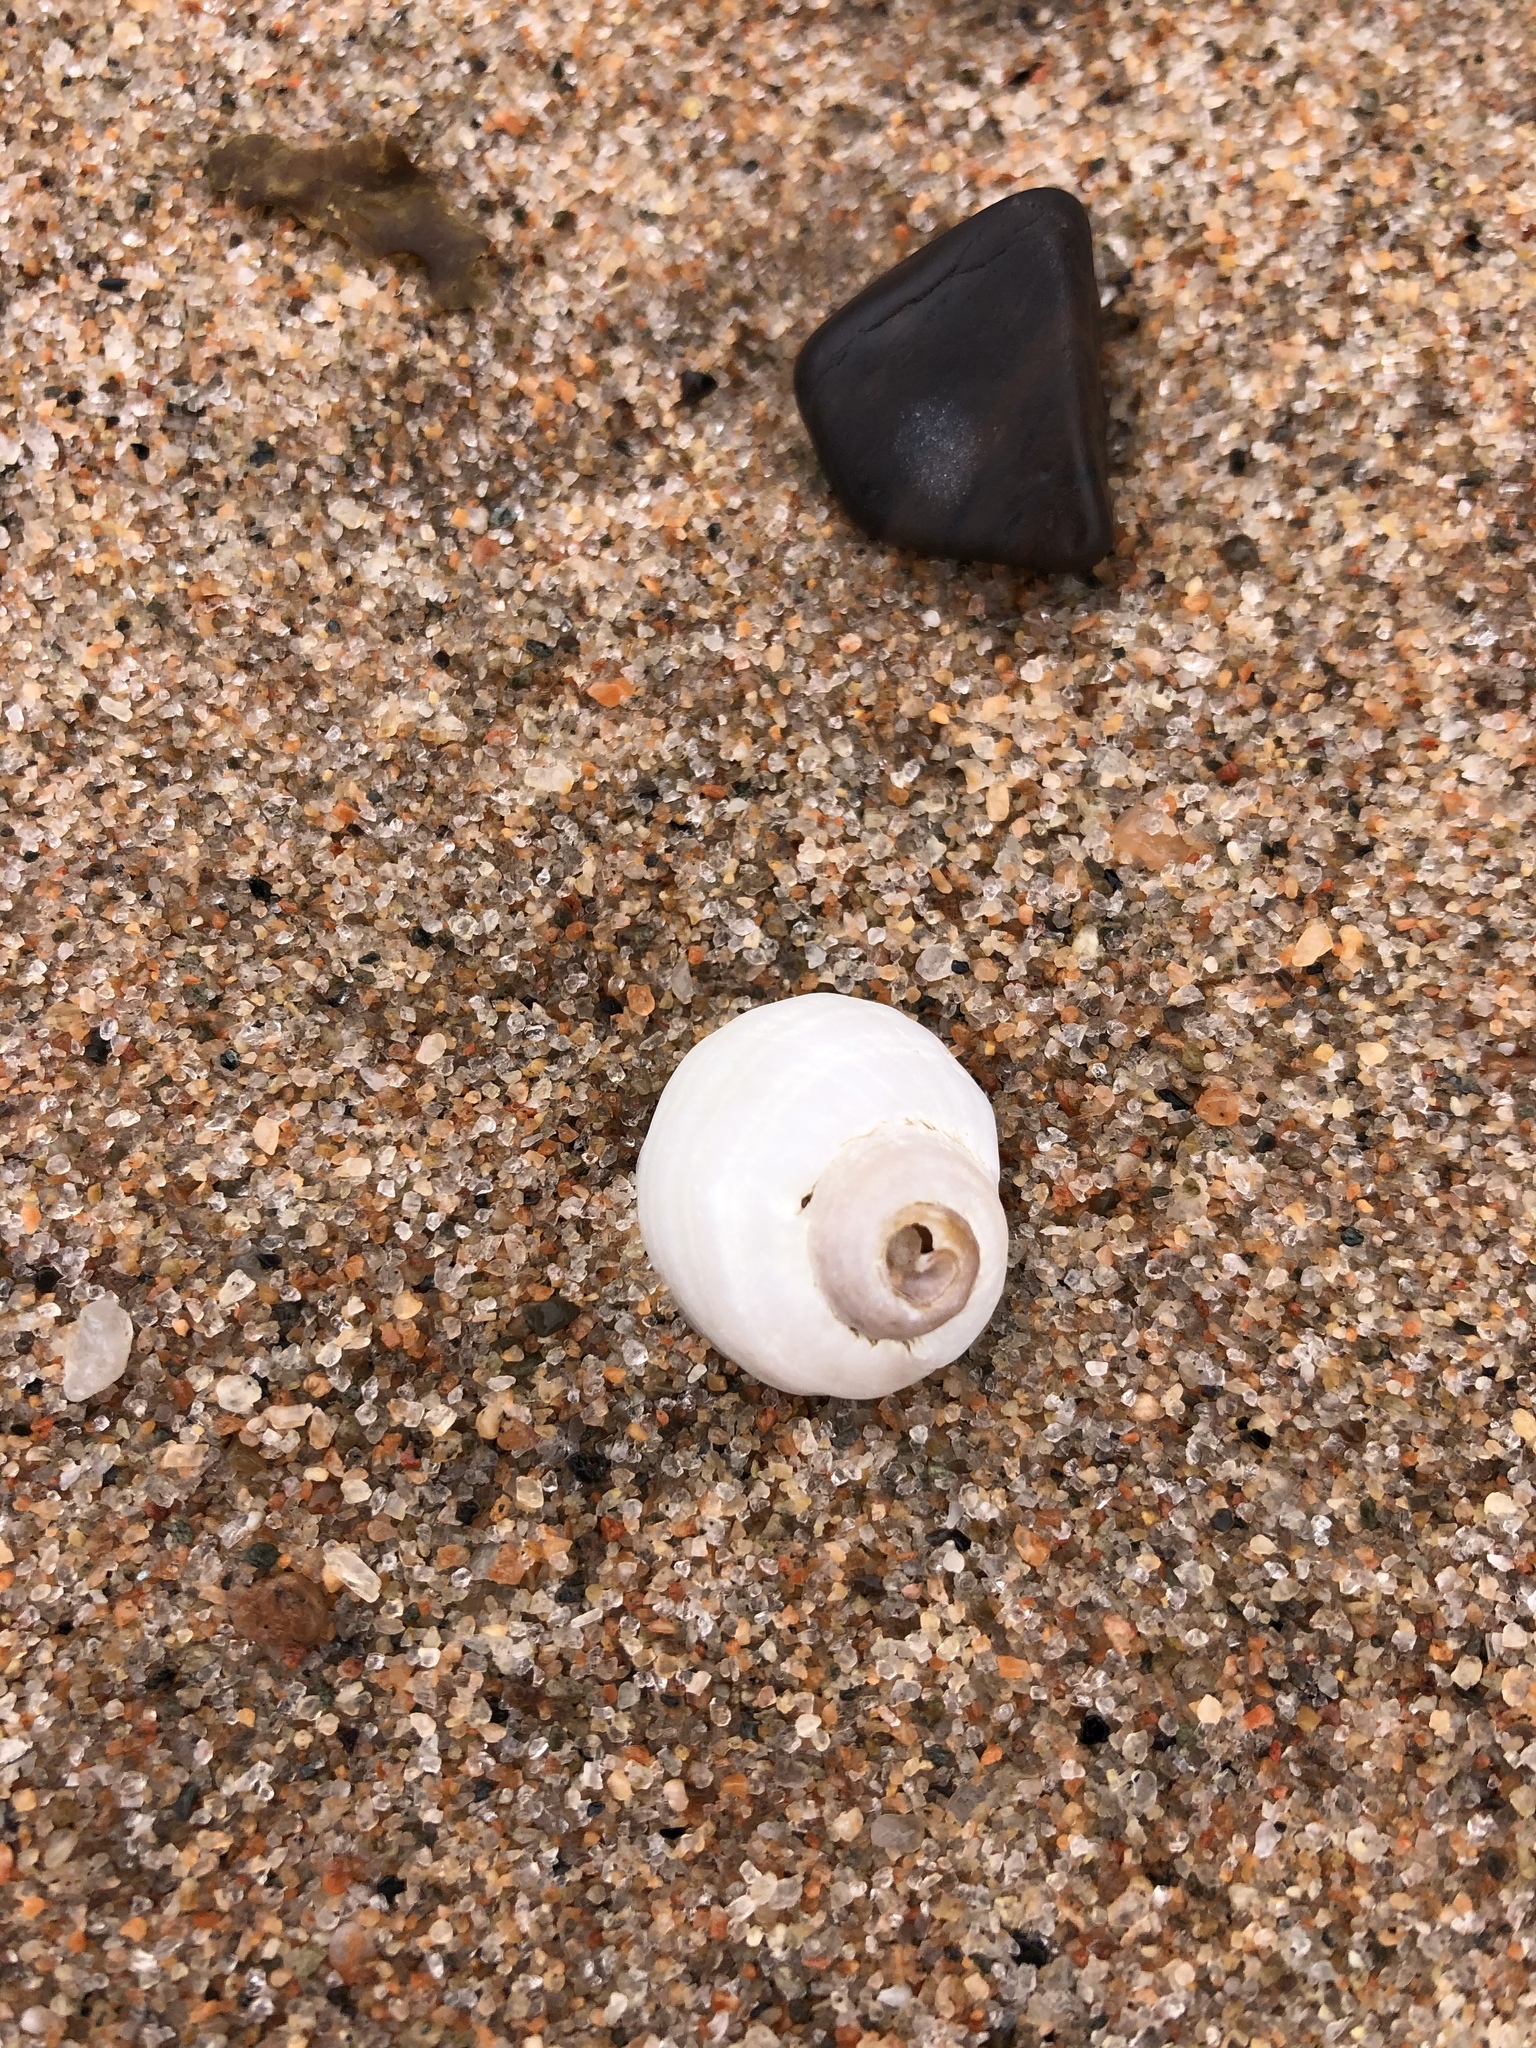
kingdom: Animalia
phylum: Mollusca
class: Gastropoda
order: Neogastropoda
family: Muricidae
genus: Nucella
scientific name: Nucella lapillus
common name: Dog whelk
